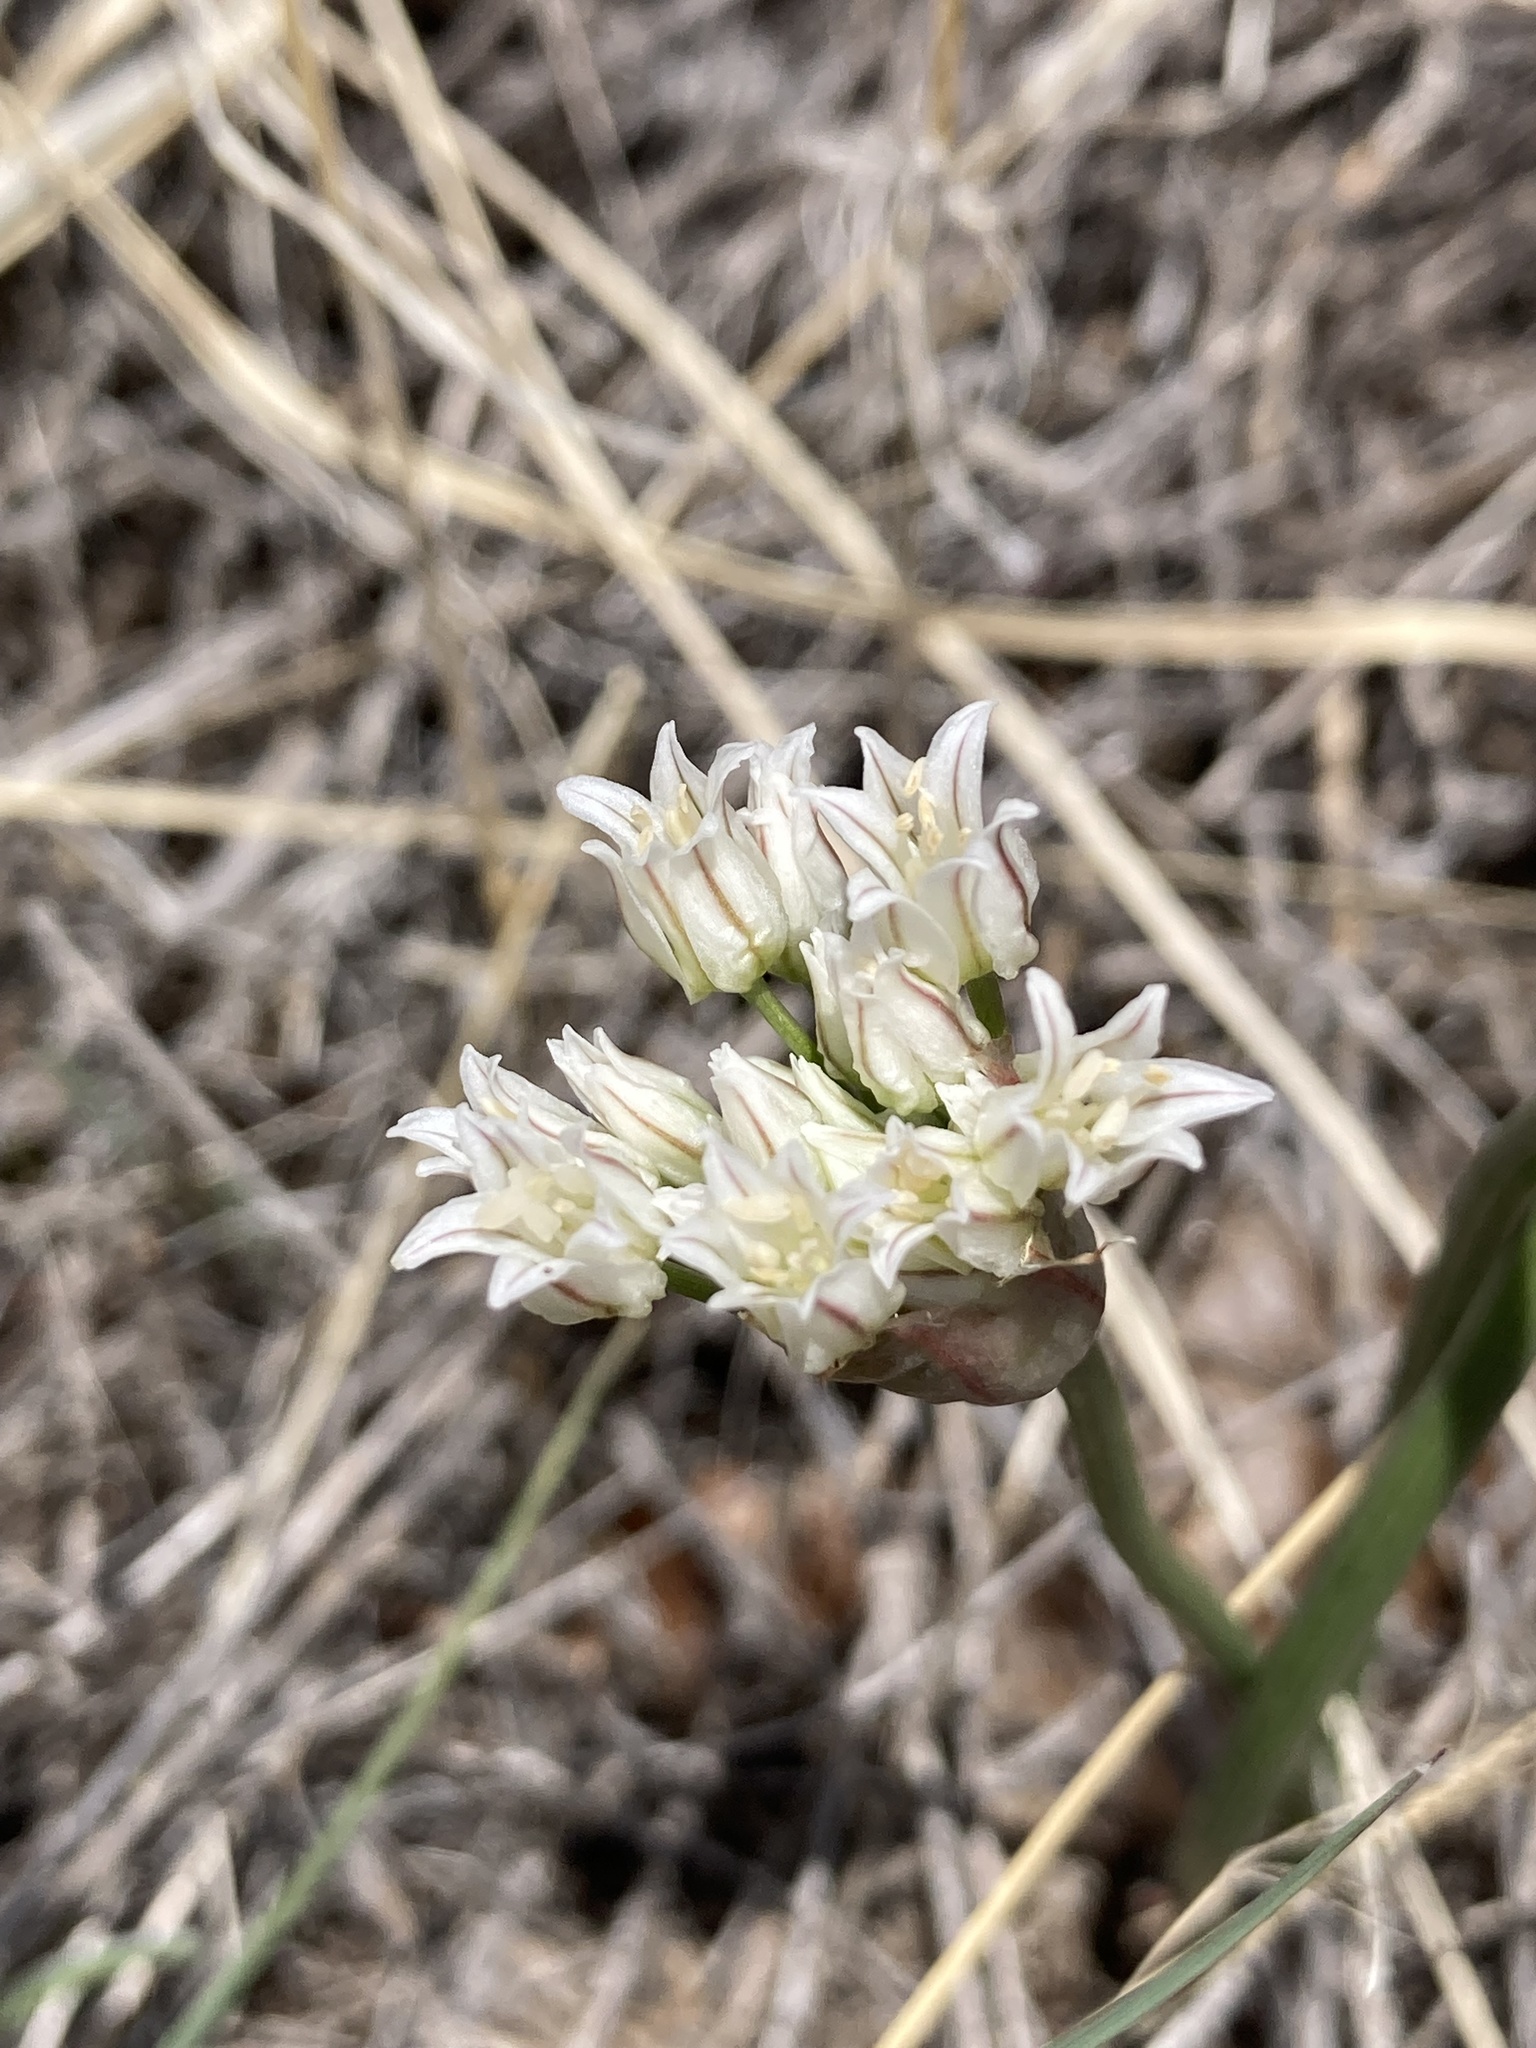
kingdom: Plantae
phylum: Tracheophyta
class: Liliopsida
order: Asparagales
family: Amaryllidaceae
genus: Allium
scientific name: Allium textile
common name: Prairie onion
